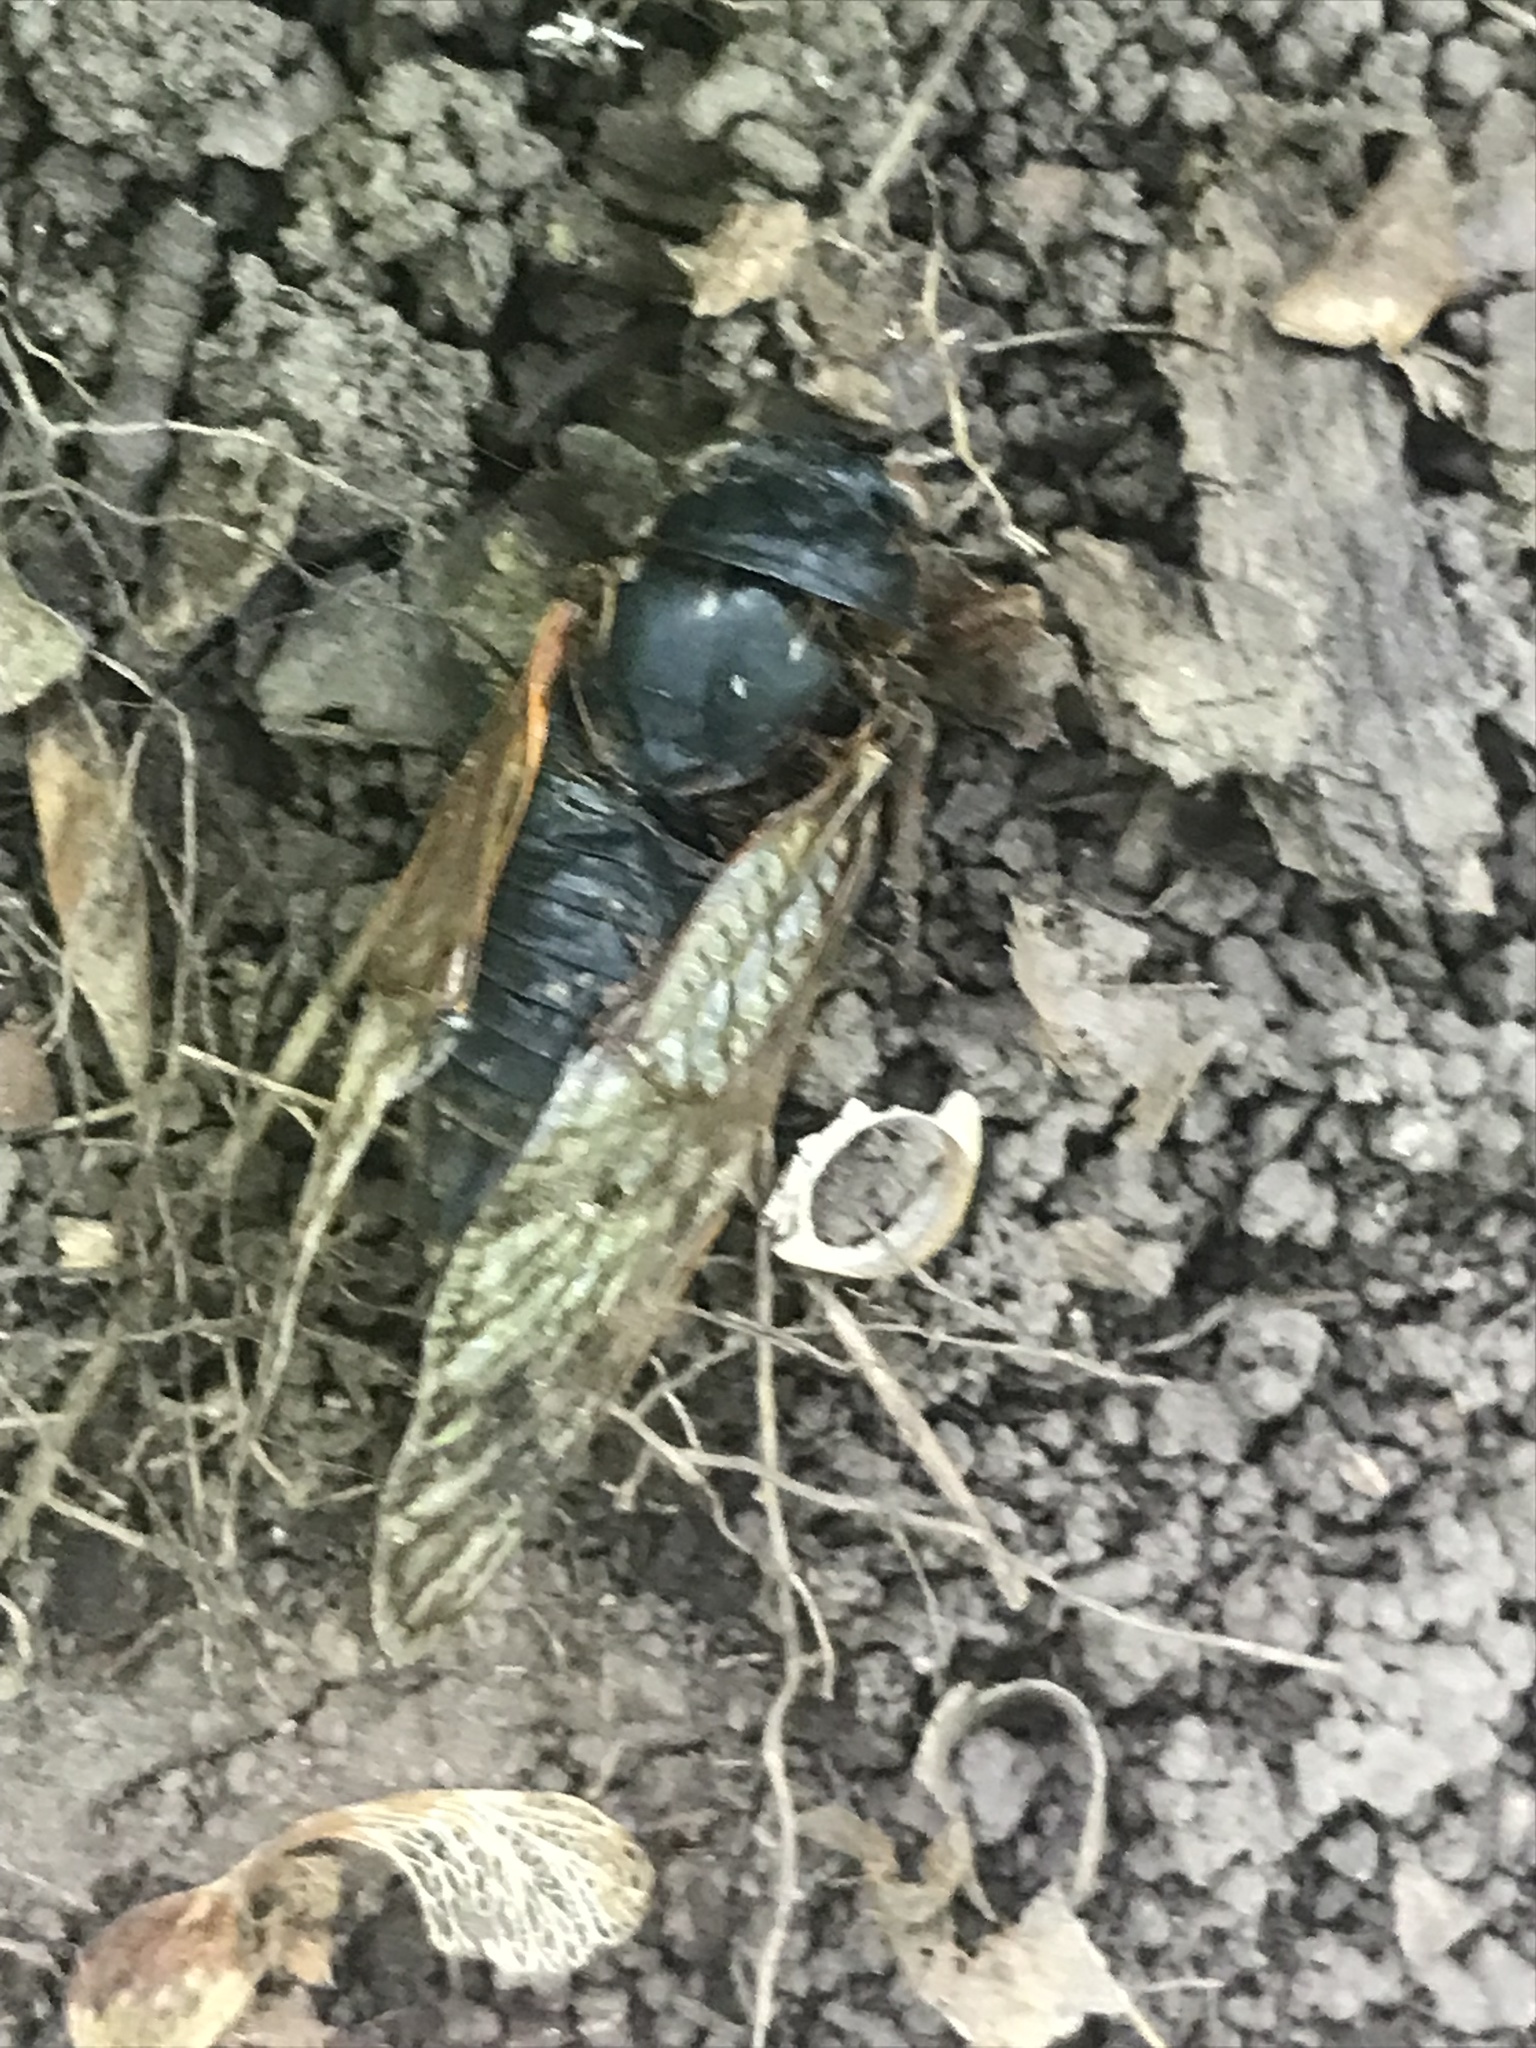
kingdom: Animalia
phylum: Arthropoda
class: Insecta
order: Hemiptera
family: Cicadidae
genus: Magicicada
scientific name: Magicicada septendecim
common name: Periodical cicada
